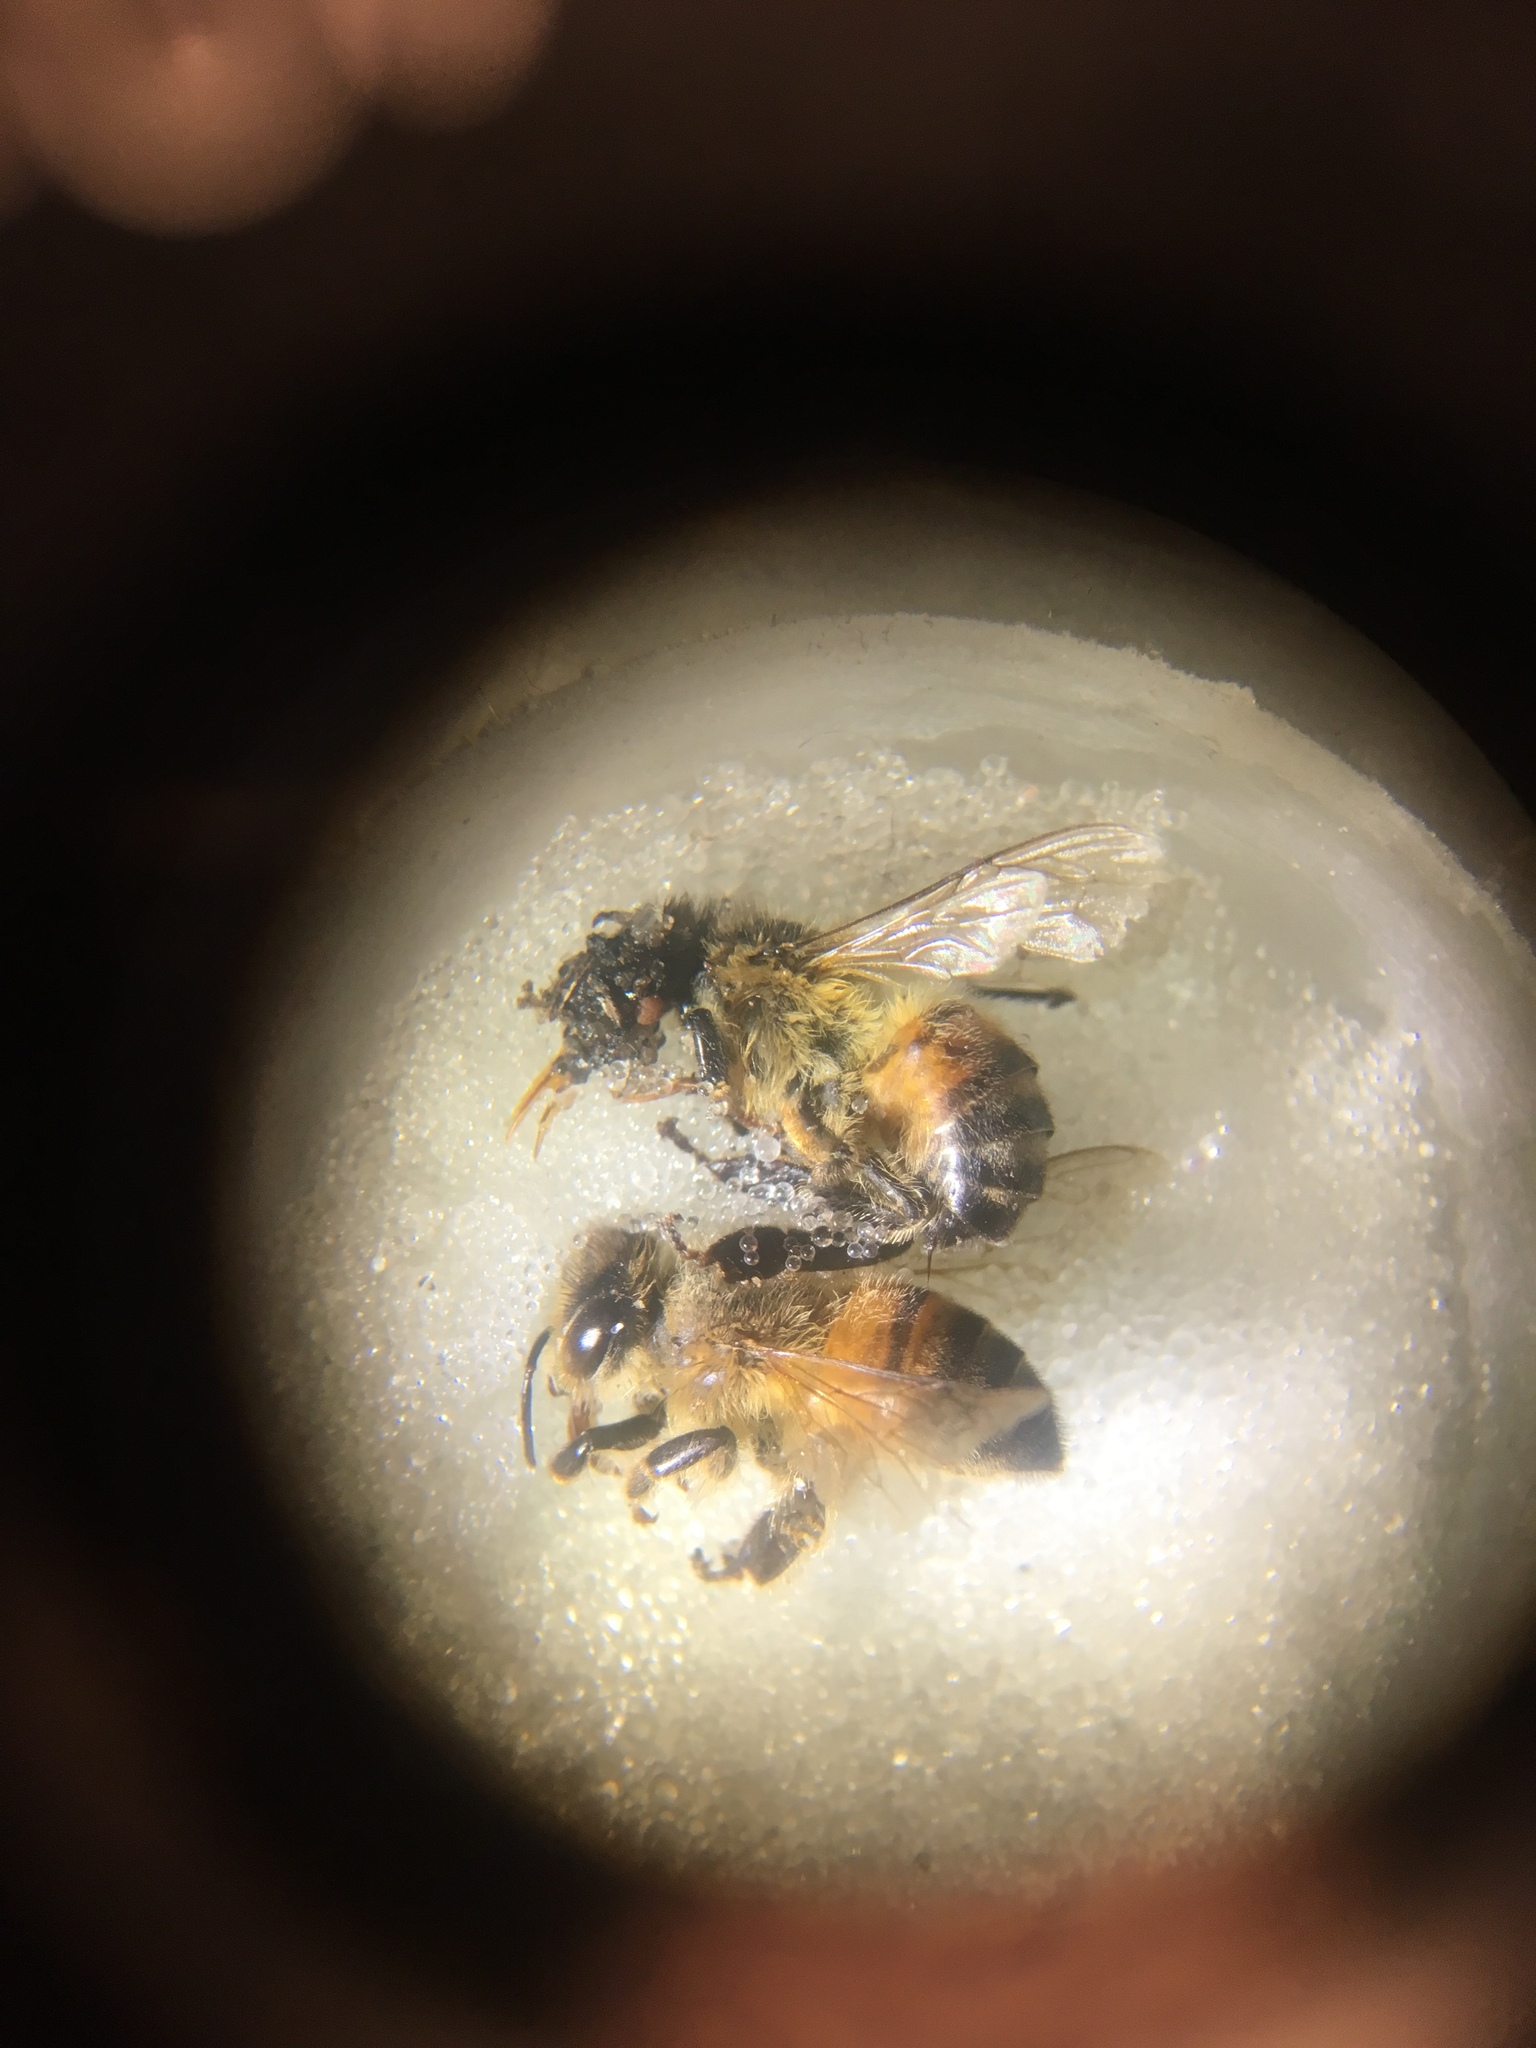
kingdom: Animalia
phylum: Arthropoda
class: Insecta
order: Hymenoptera
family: Apidae
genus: Apis
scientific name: Apis mellifera
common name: Honey bee
